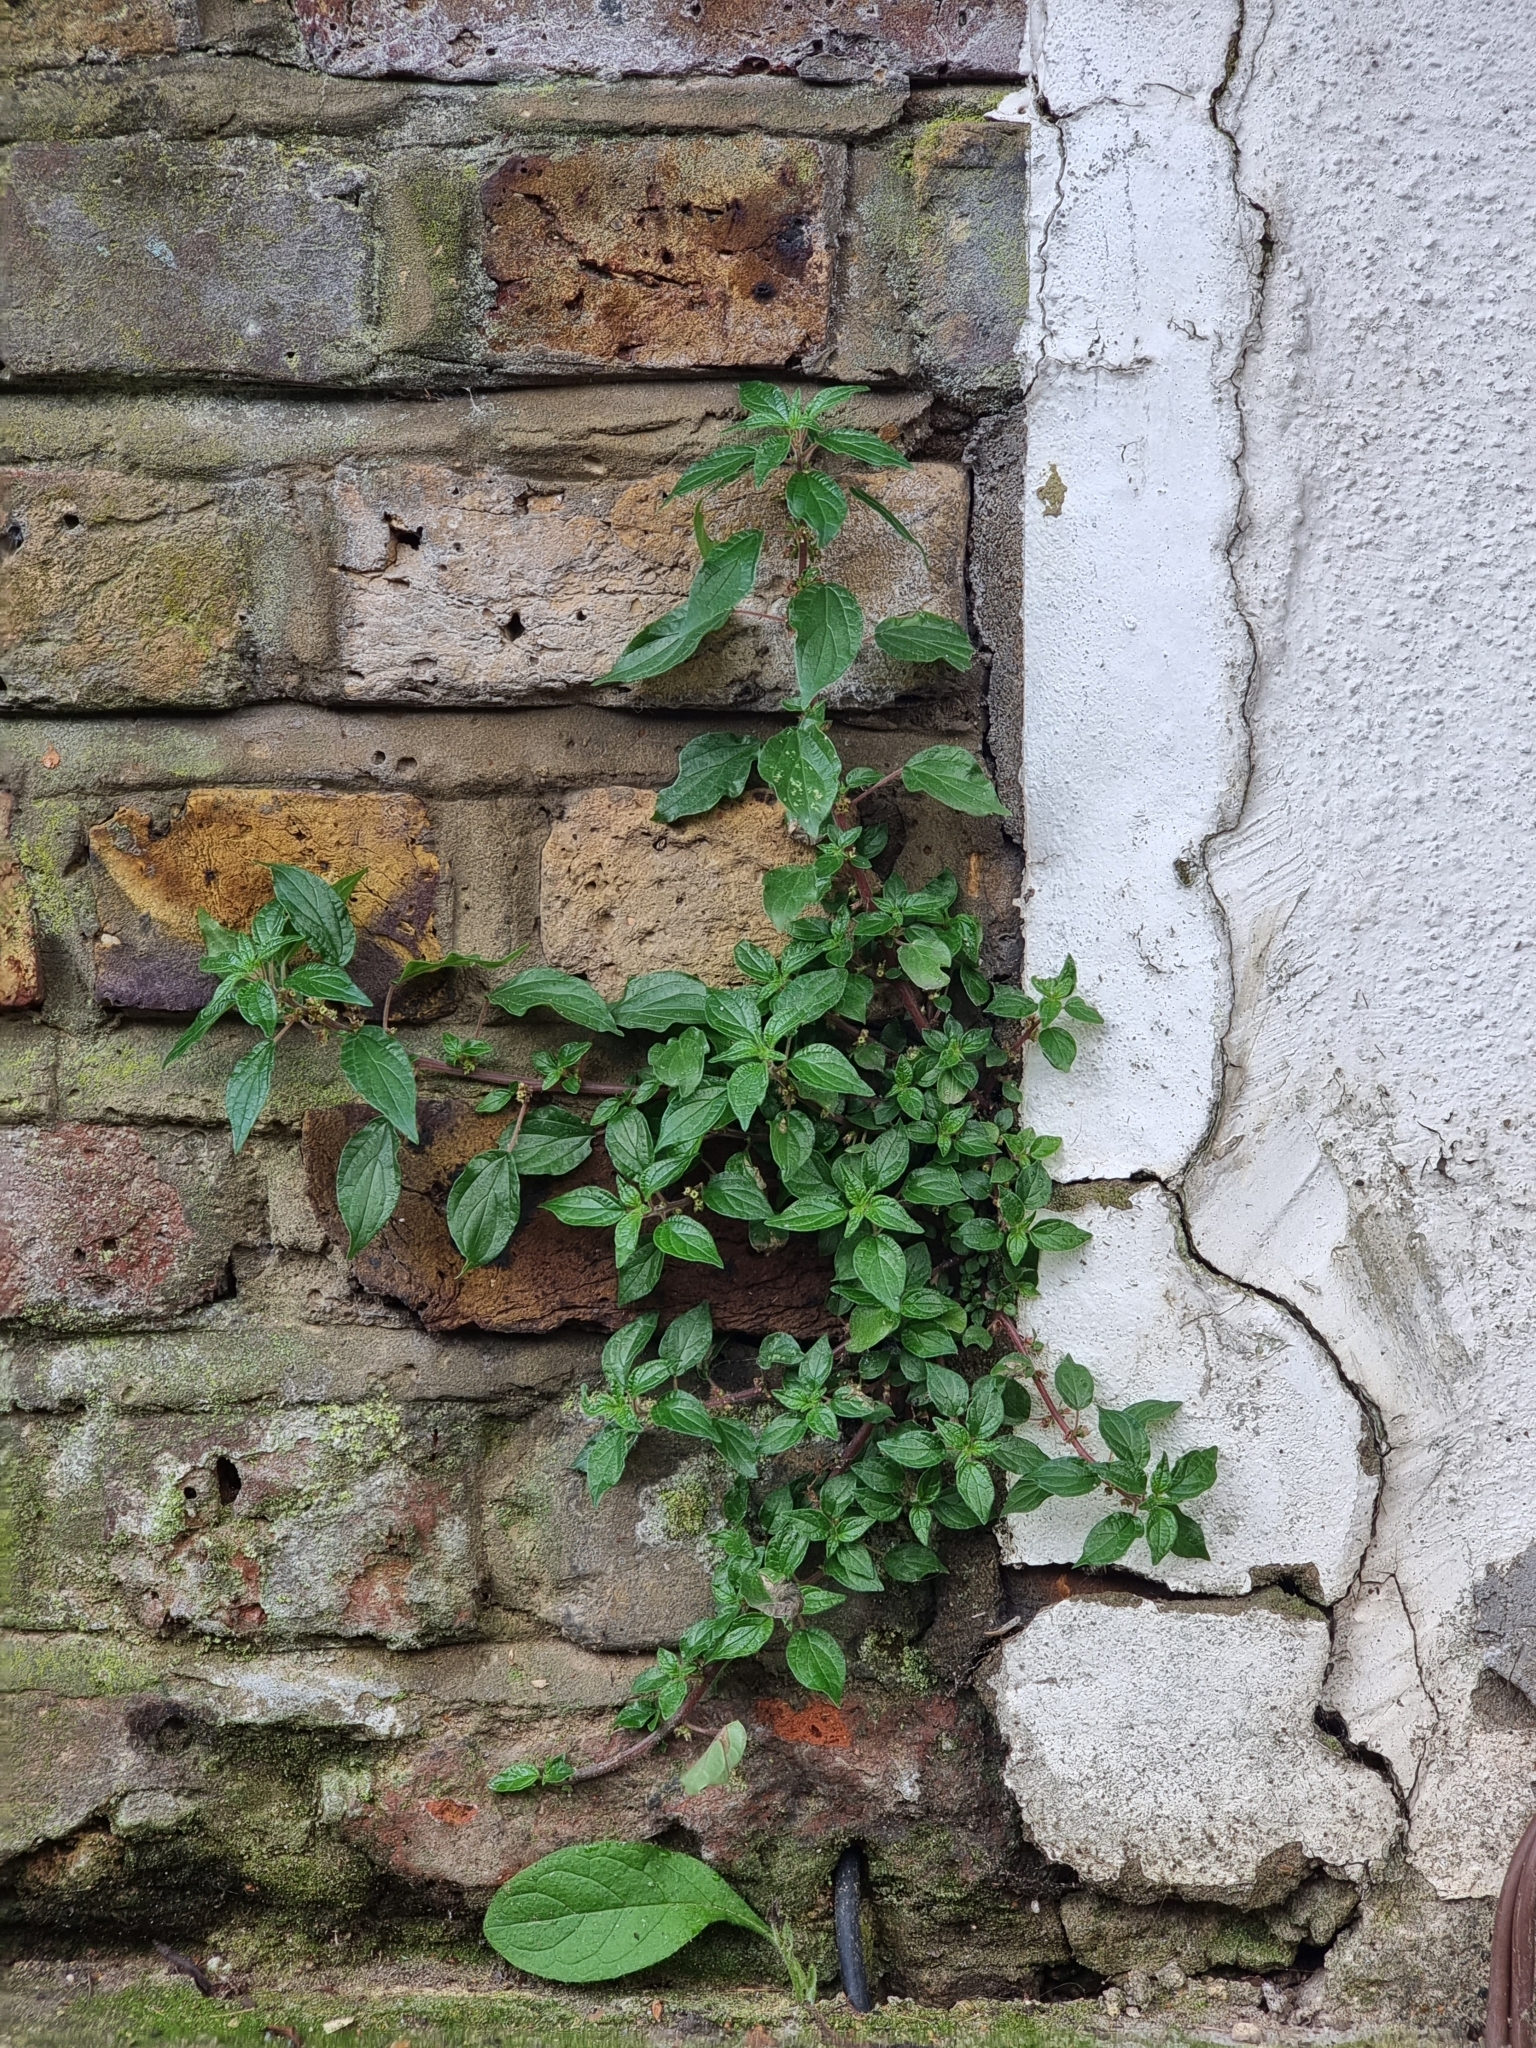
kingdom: Plantae
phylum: Tracheophyta
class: Magnoliopsida
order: Rosales
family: Urticaceae
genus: Parietaria
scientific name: Parietaria judaica
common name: Pellitory-of-the-wall
